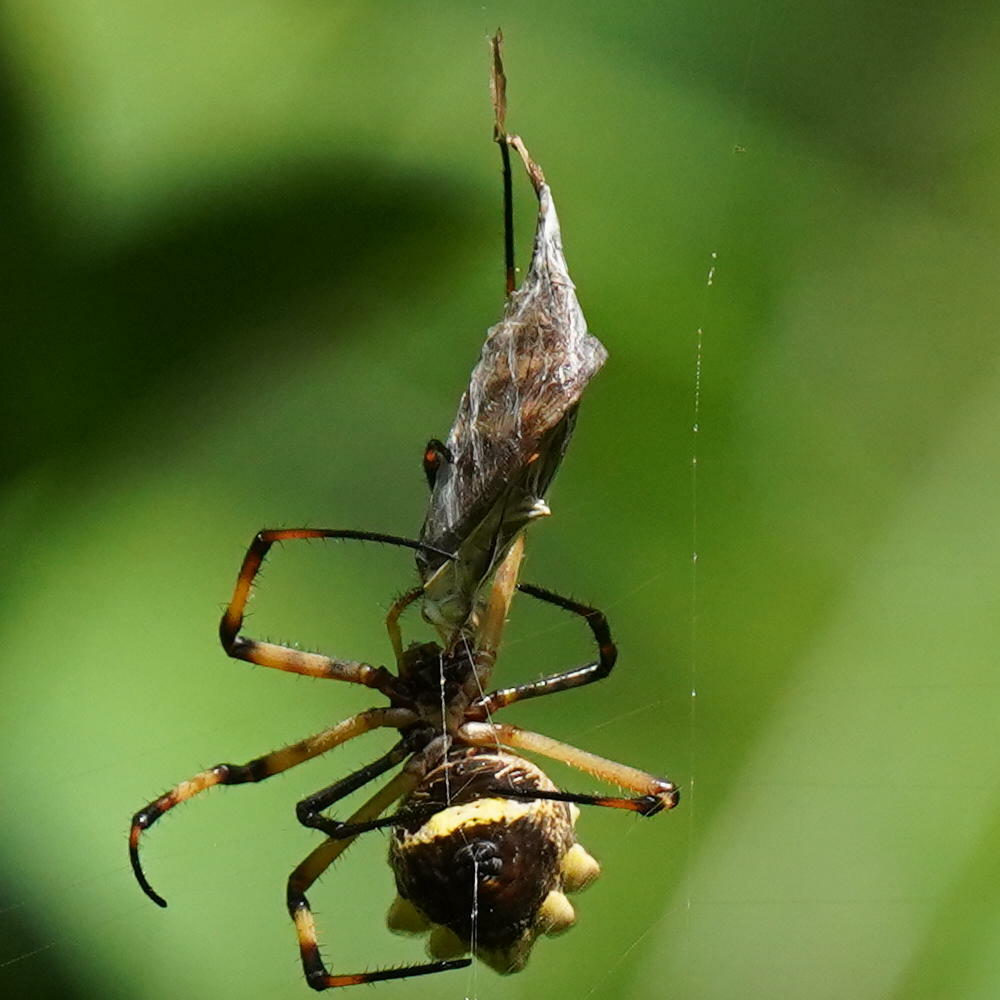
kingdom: Animalia
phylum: Arthropoda
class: Arachnida
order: Araneae
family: Araneidae
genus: Argiope
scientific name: Argiope argentata
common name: Orb weavers
